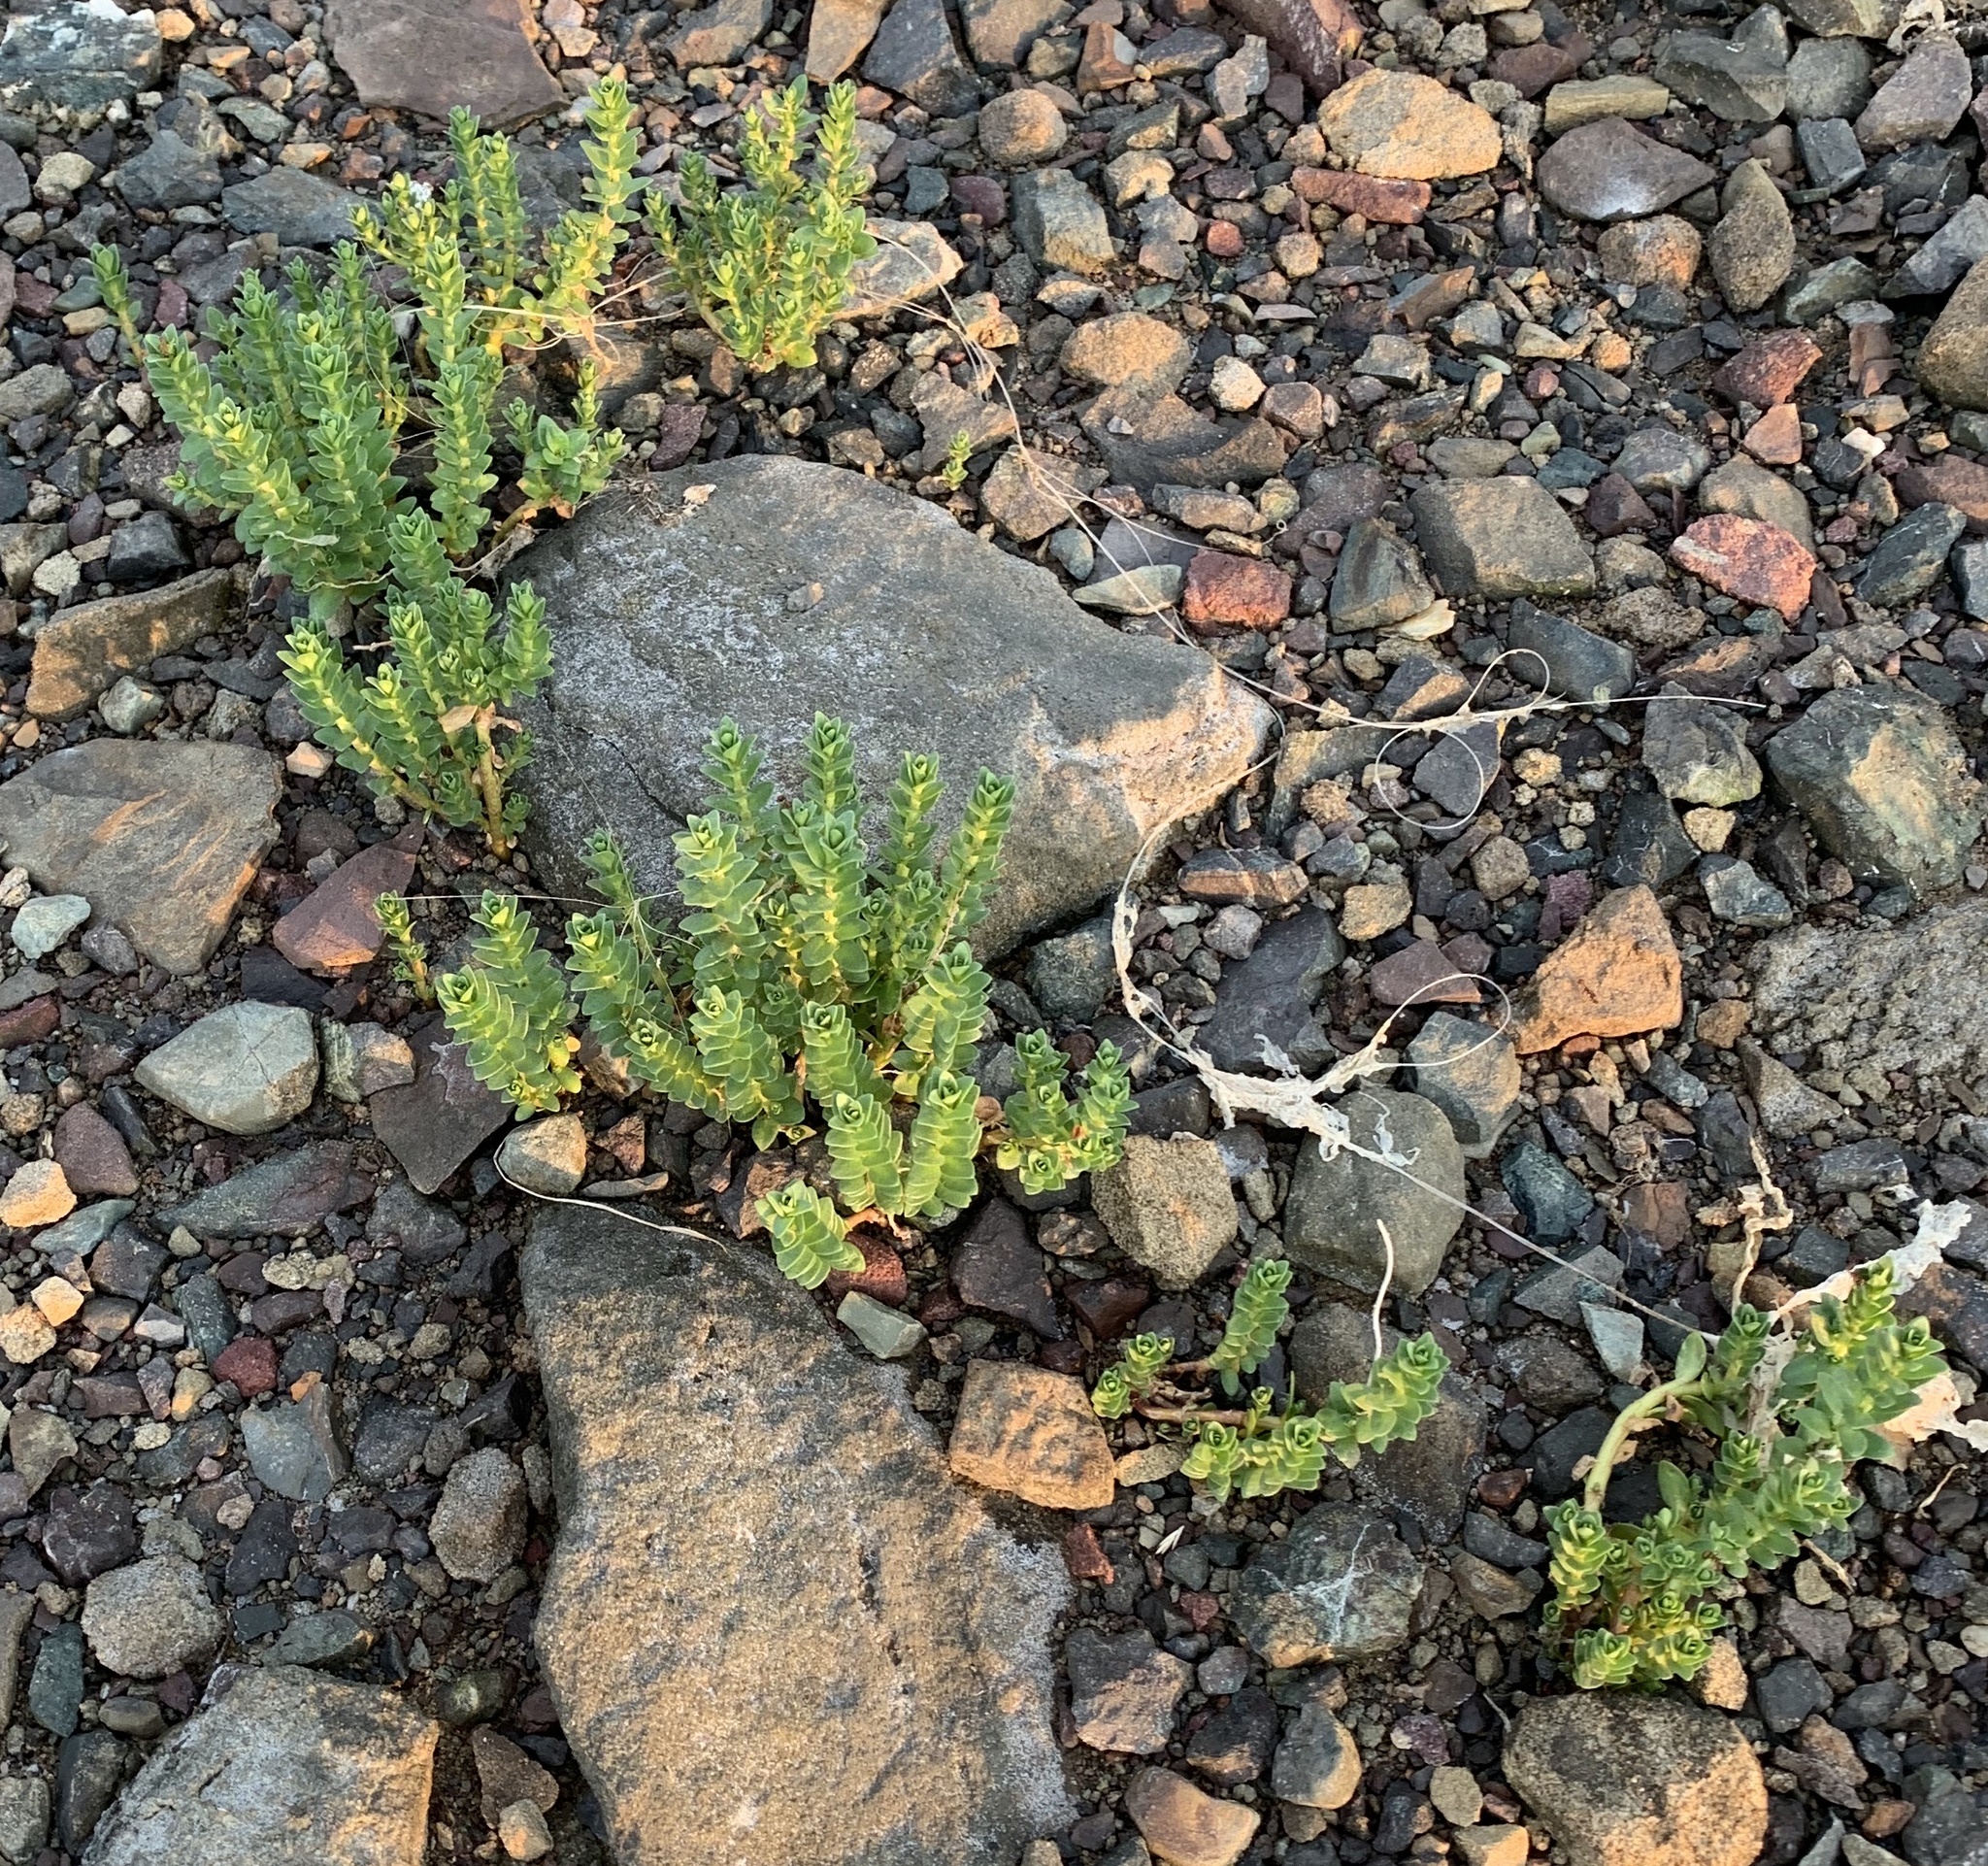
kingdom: Plantae
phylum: Tracheophyta
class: Magnoliopsida
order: Caryophyllales
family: Caryophyllaceae
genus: Honckenya
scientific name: Honckenya peploides
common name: Sea sandwort
